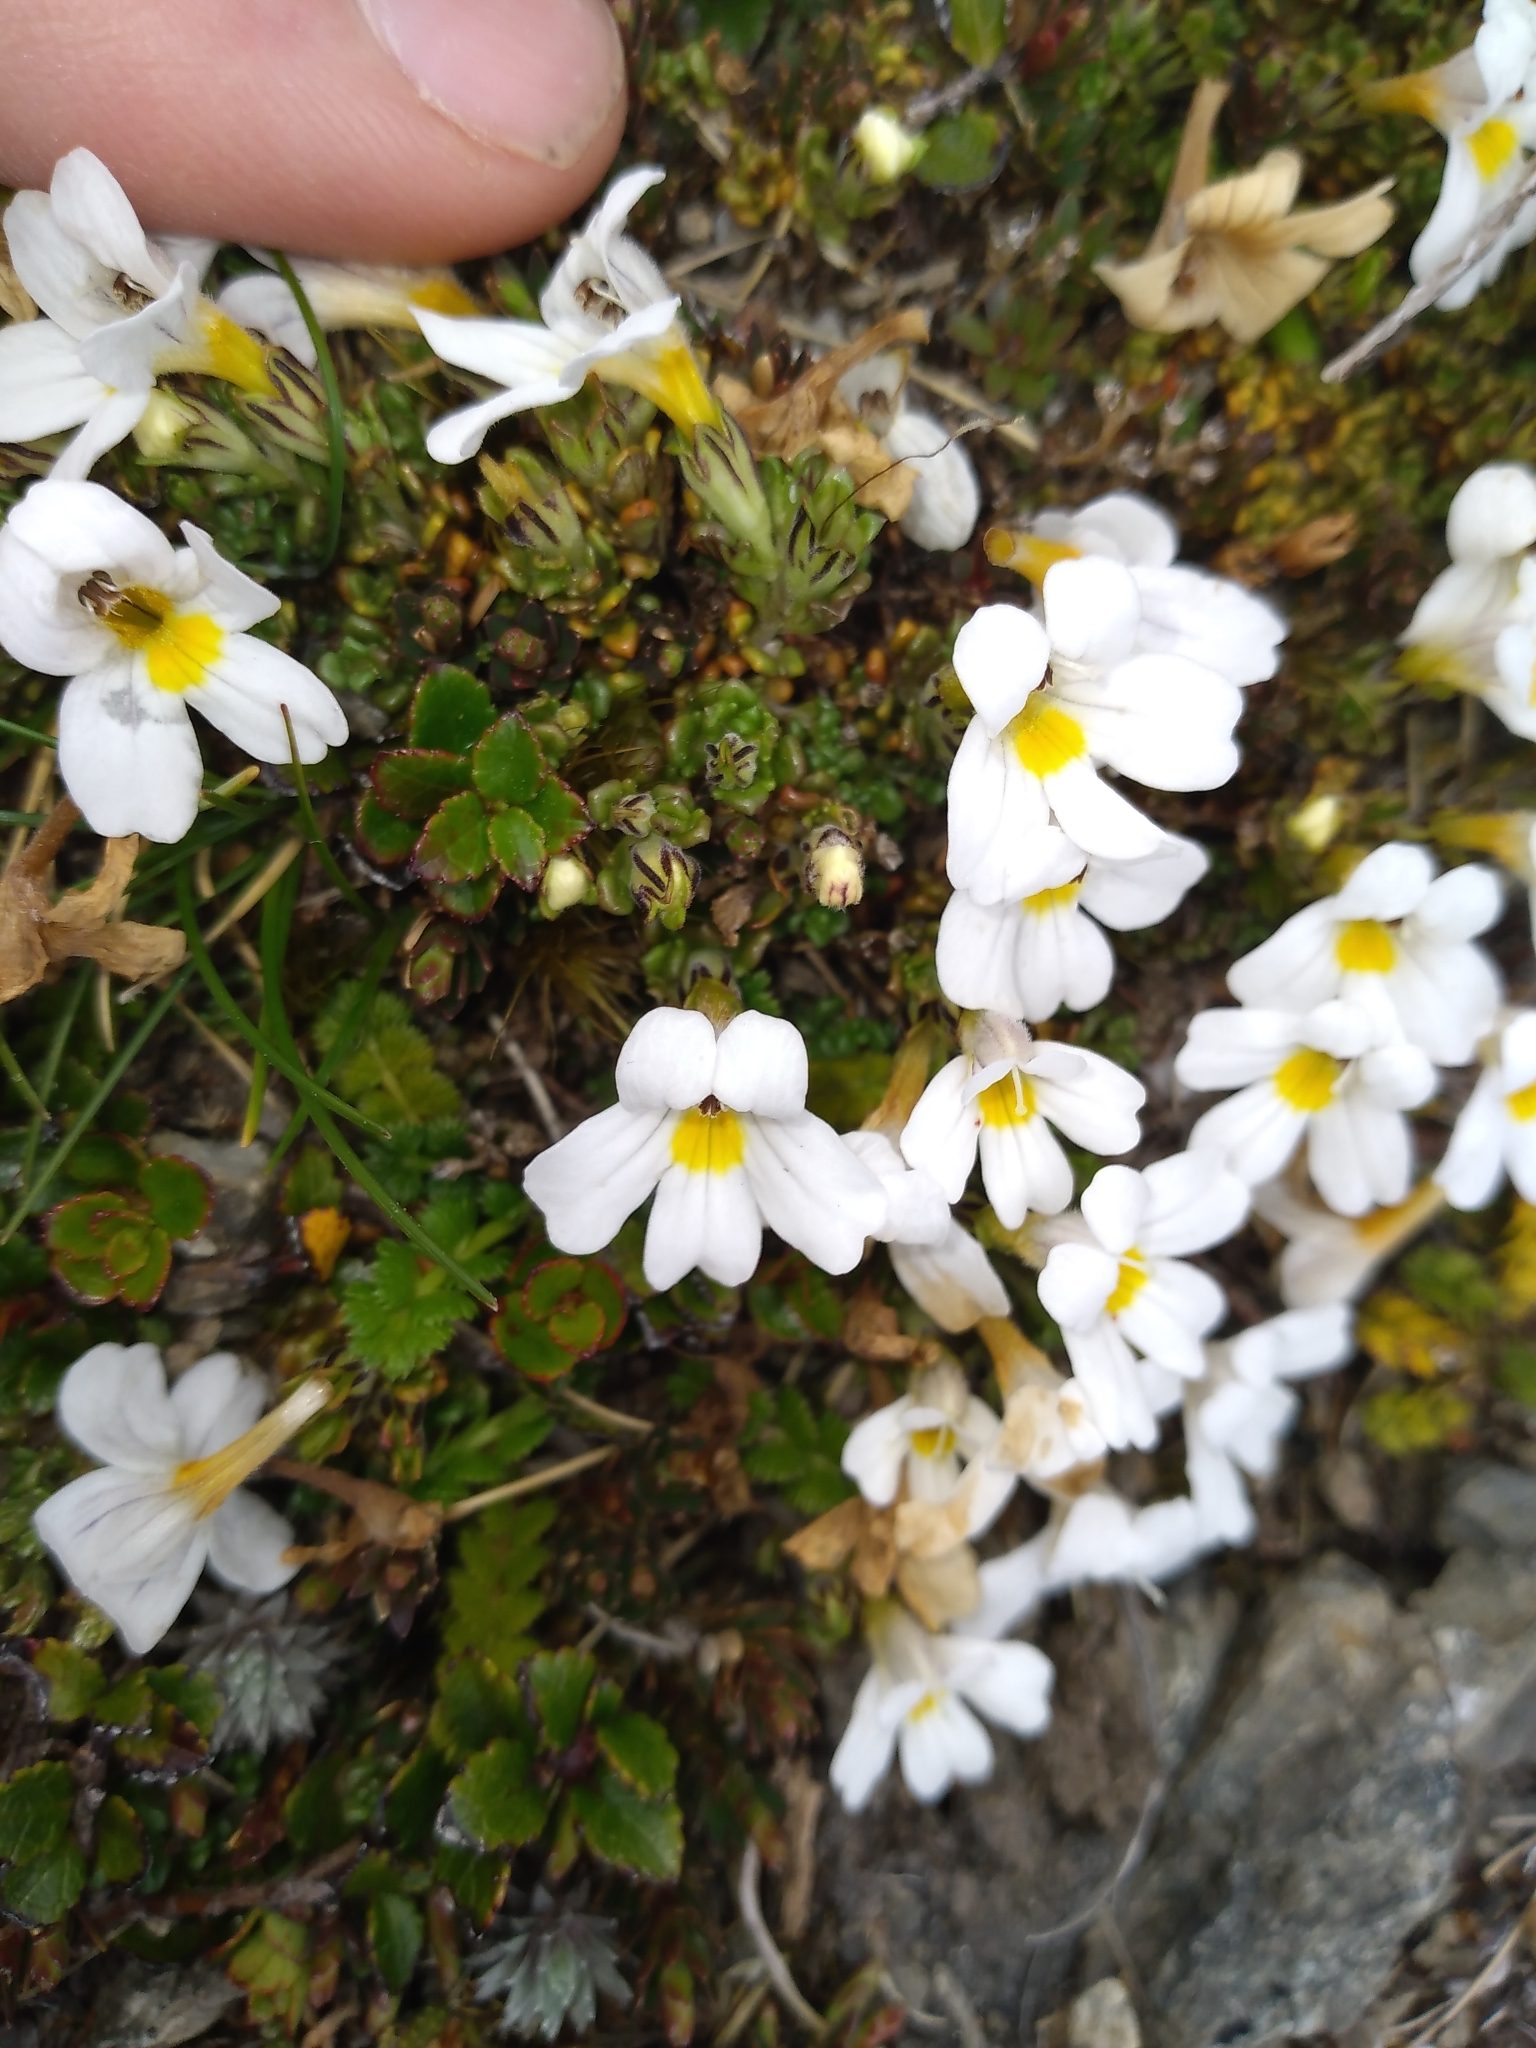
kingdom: Plantae
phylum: Tracheophyta
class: Magnoliopsida
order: Lamiales
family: Orobanchaceae
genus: Euphrasia
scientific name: Euphrasia revoluta
